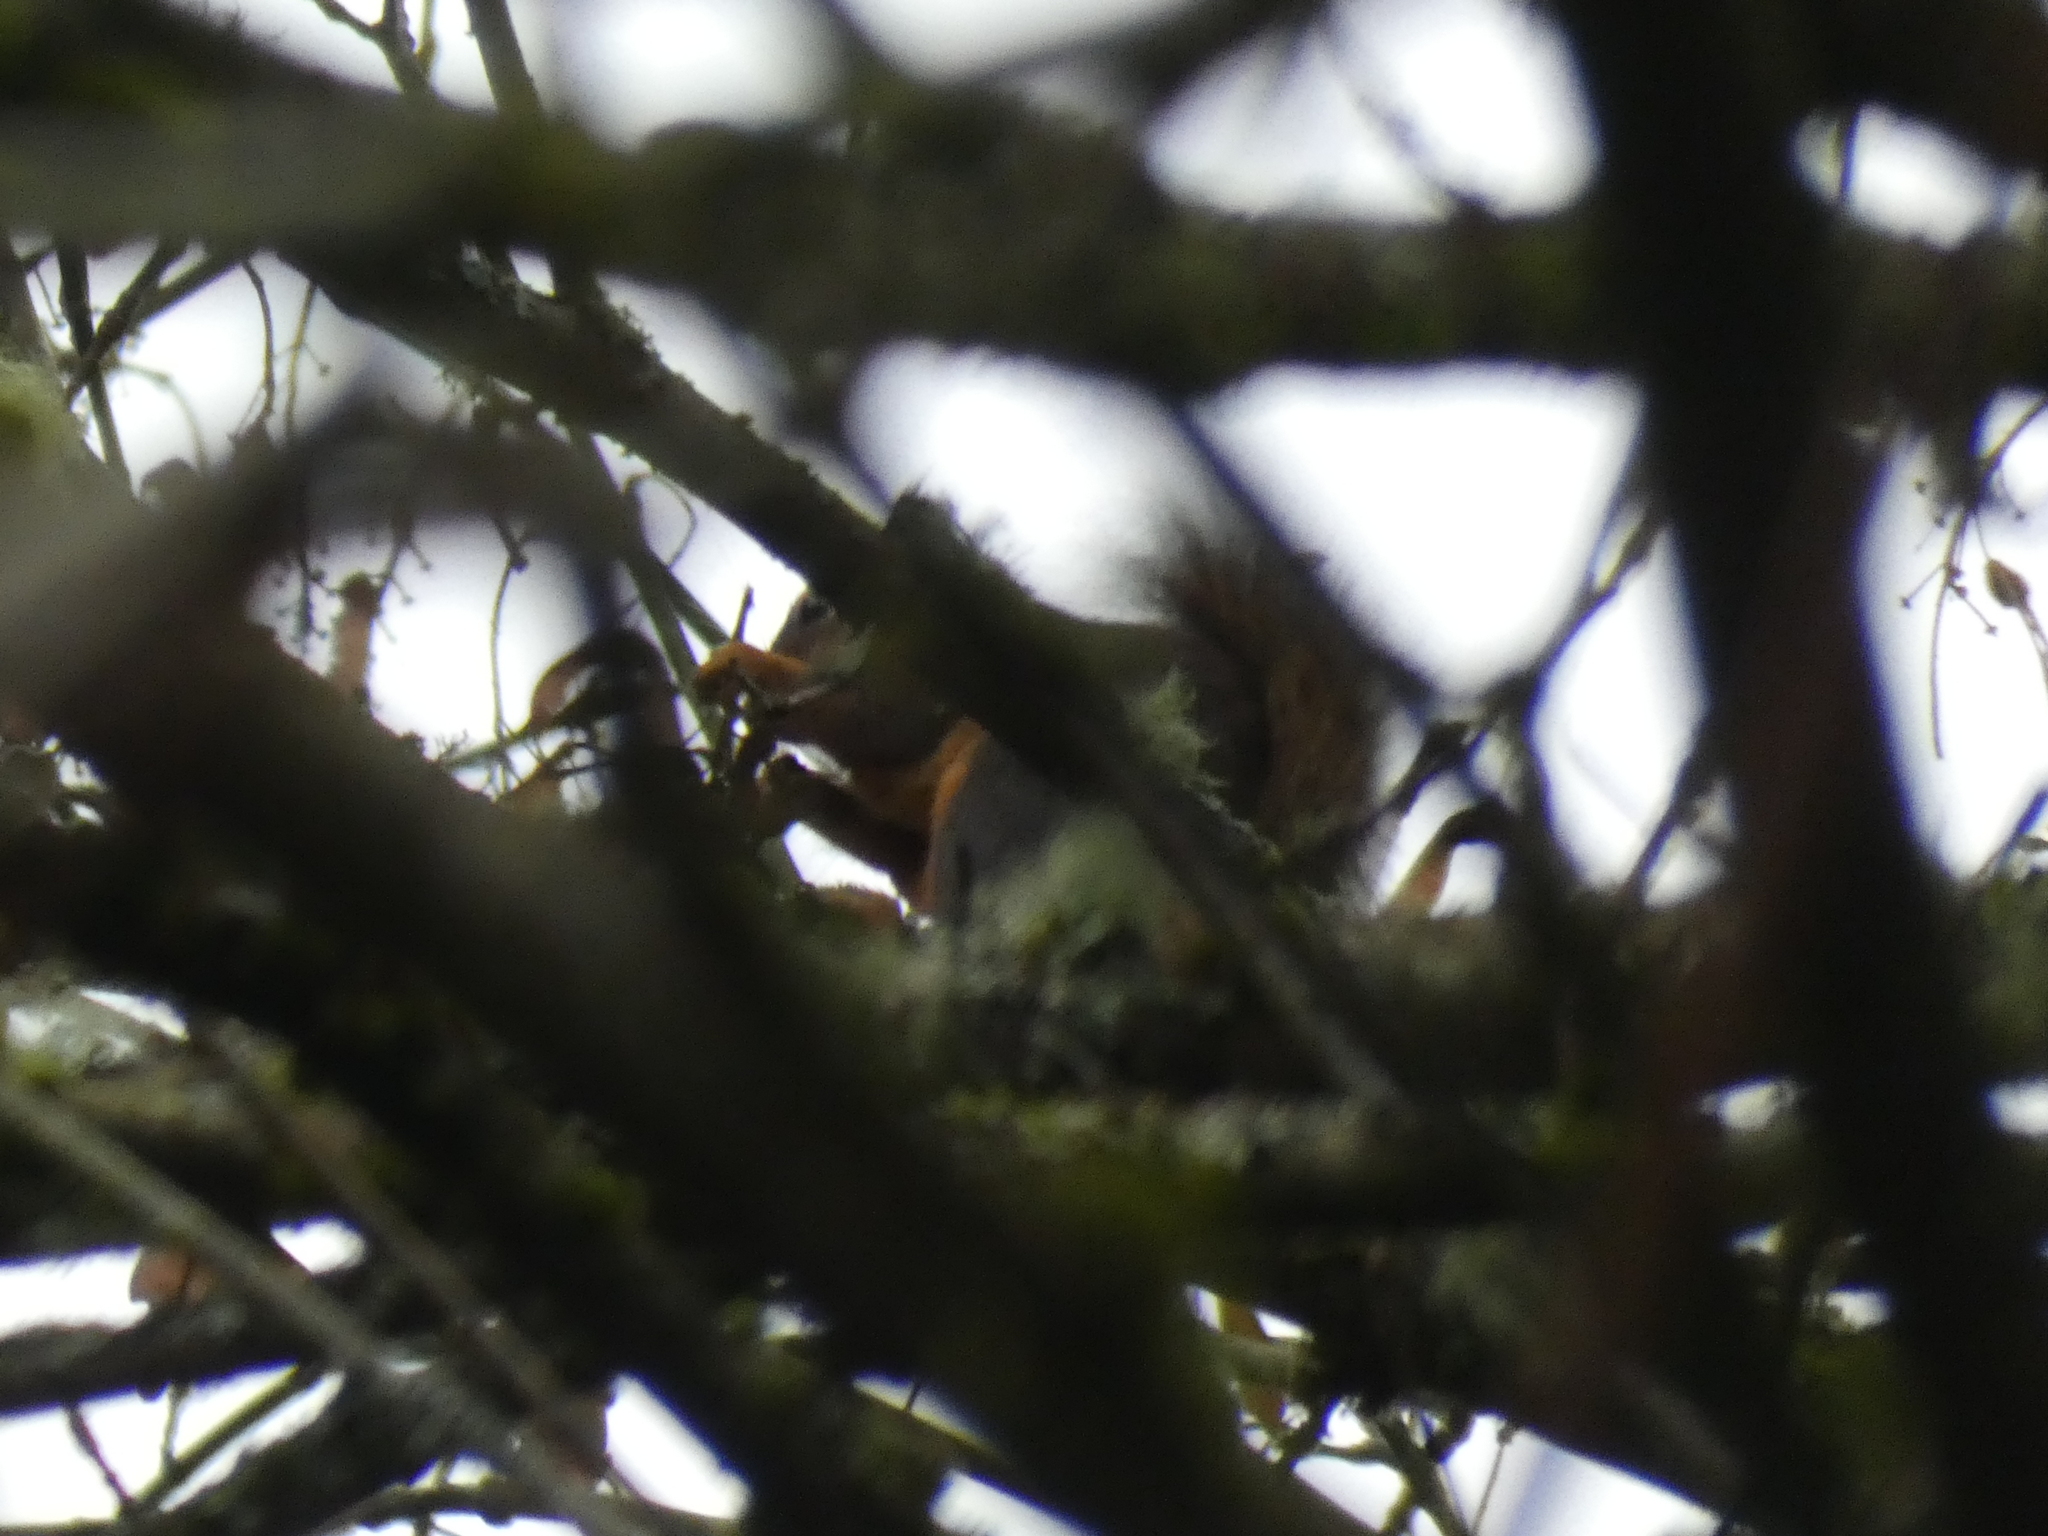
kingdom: Animalia
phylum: Chordata
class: Mammalia
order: Rodentia
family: Sciuridae
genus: Tamiasciurus
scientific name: Tamiasciurus douglasii
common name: Douglas's squirrel
